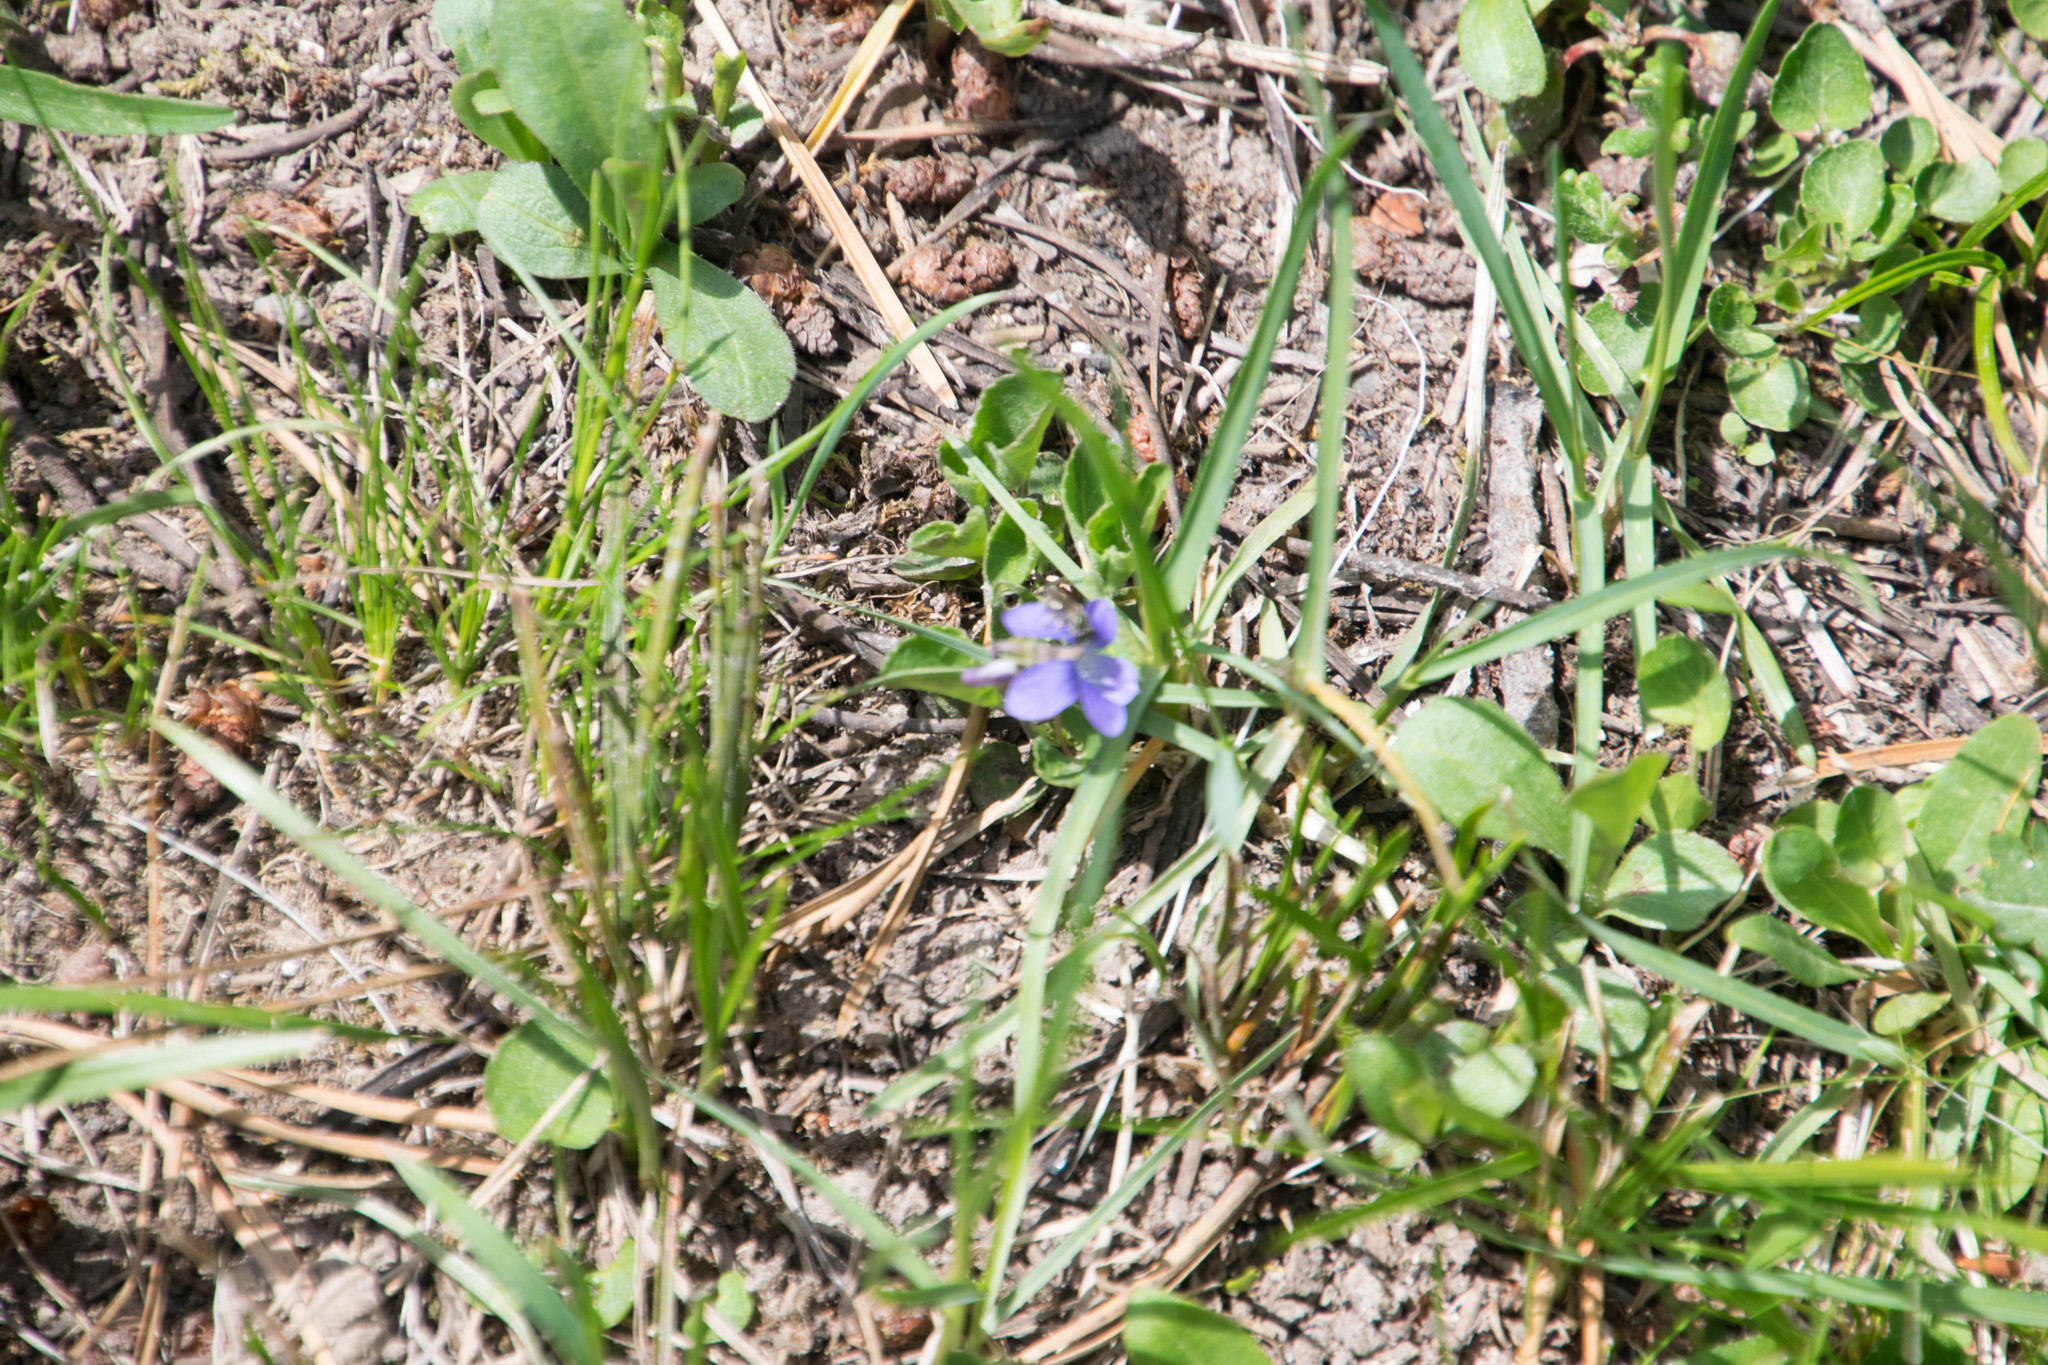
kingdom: Plantae
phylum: Tracheophyta
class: Magnoliopsida
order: Malpighiales
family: Violaceae
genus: Viola
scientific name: Viola adunca
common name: Sand violet
